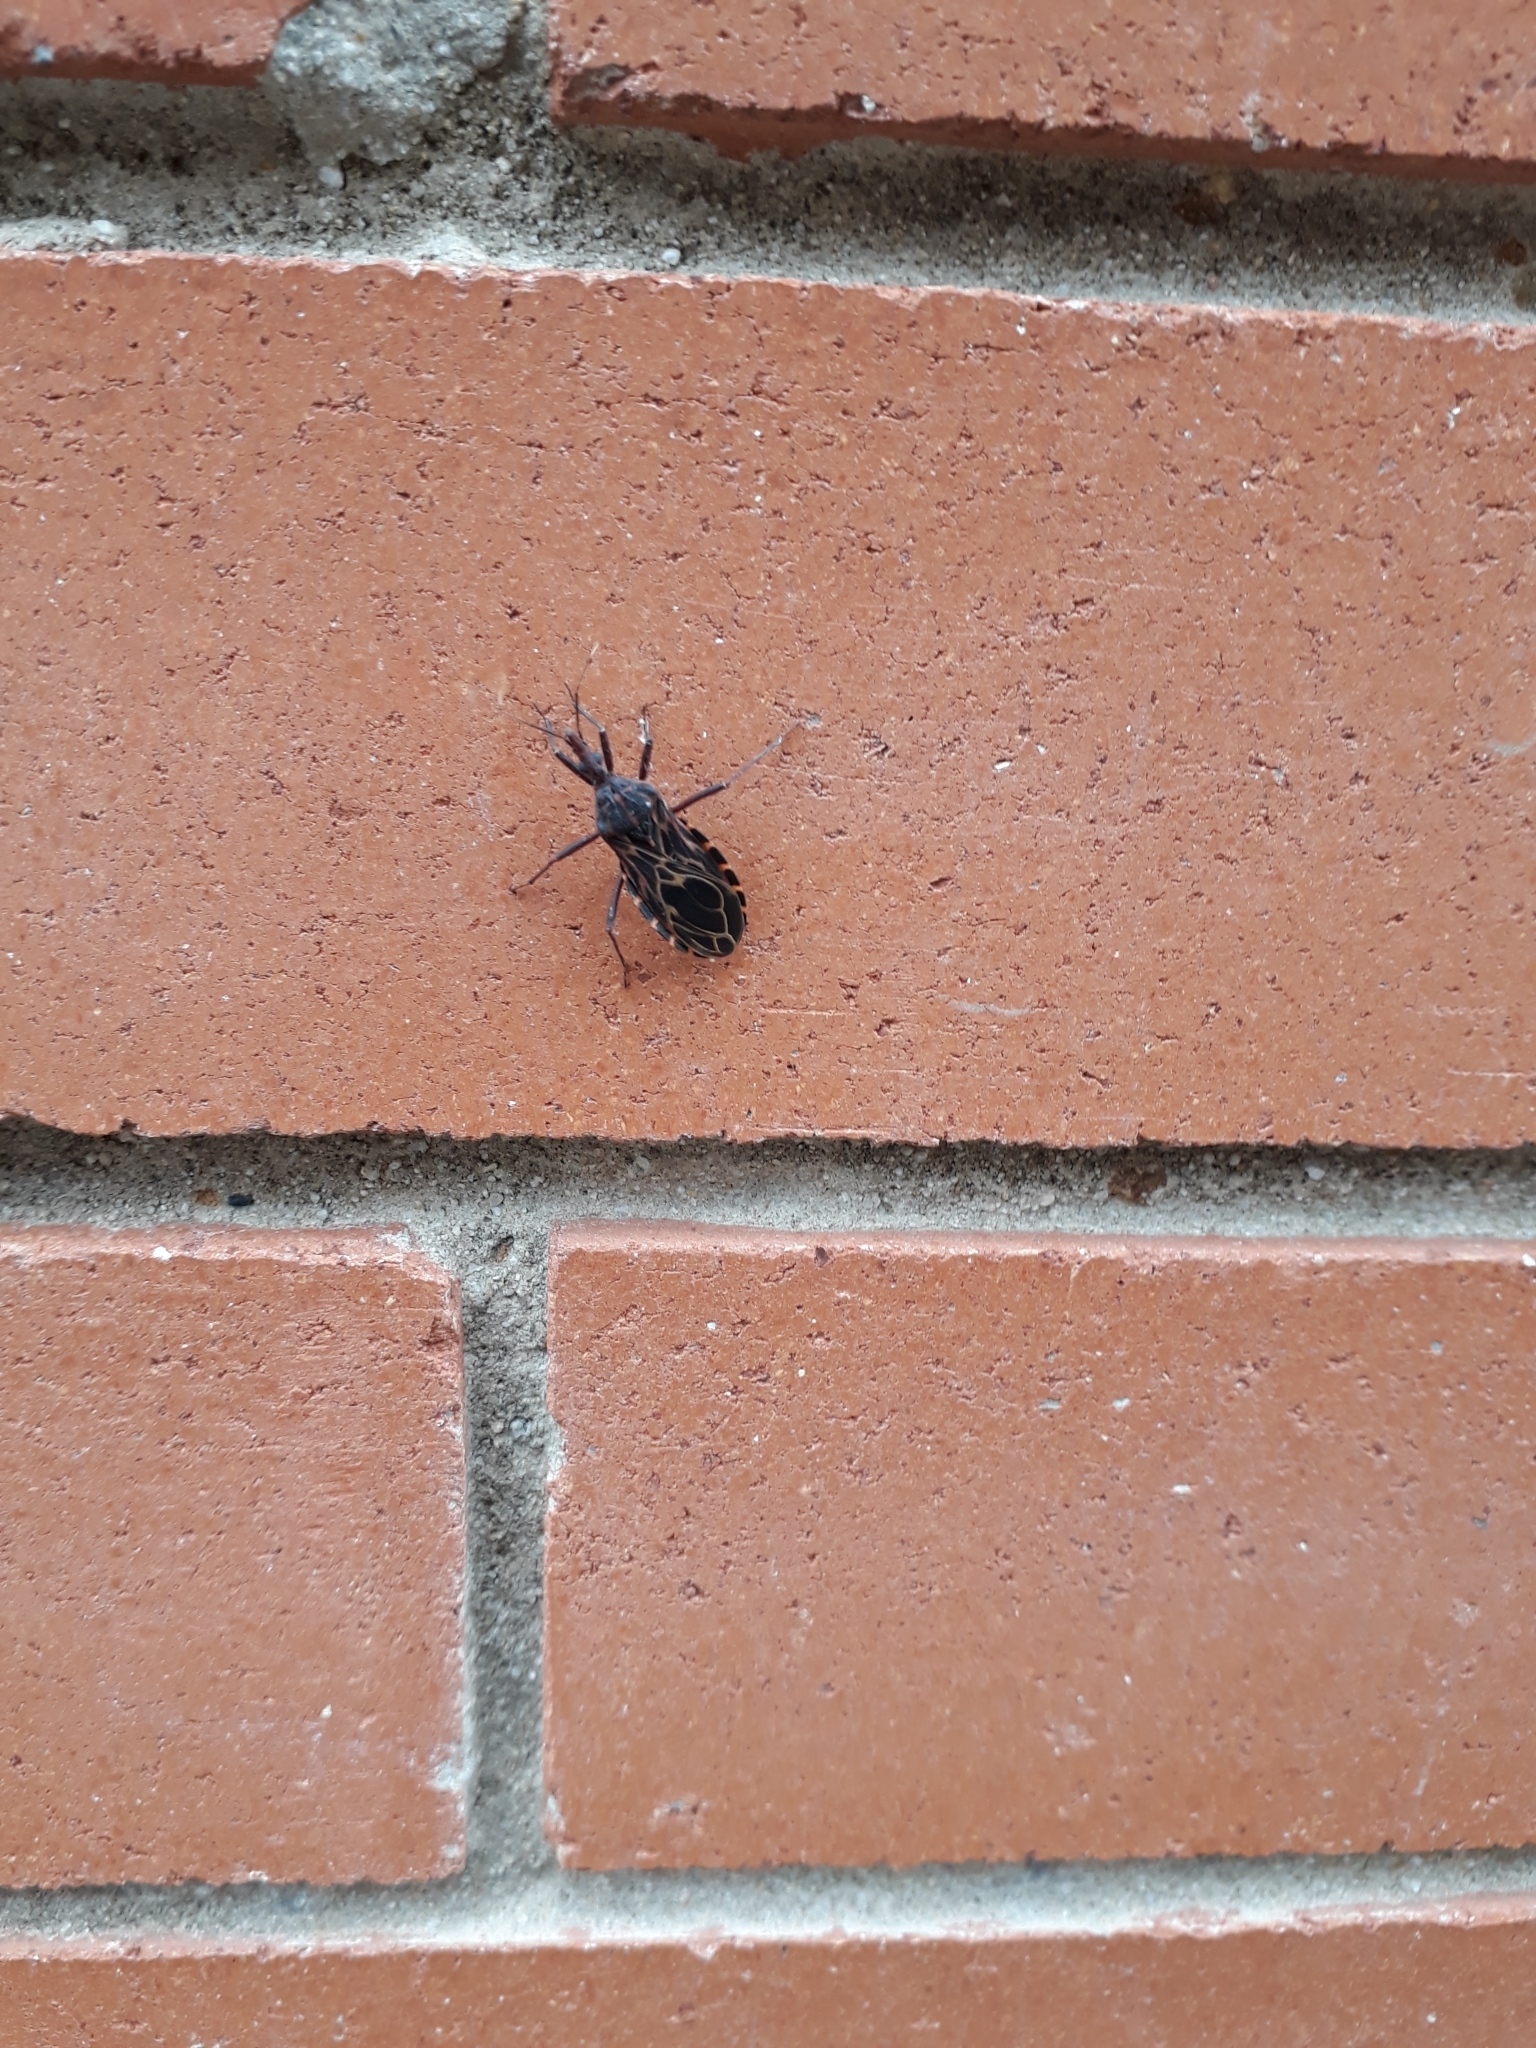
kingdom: Animalia
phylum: Arthropoda
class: Insecta
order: Hemiptera
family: Reduviidae
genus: Triatoma
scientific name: Triatoma venosa
